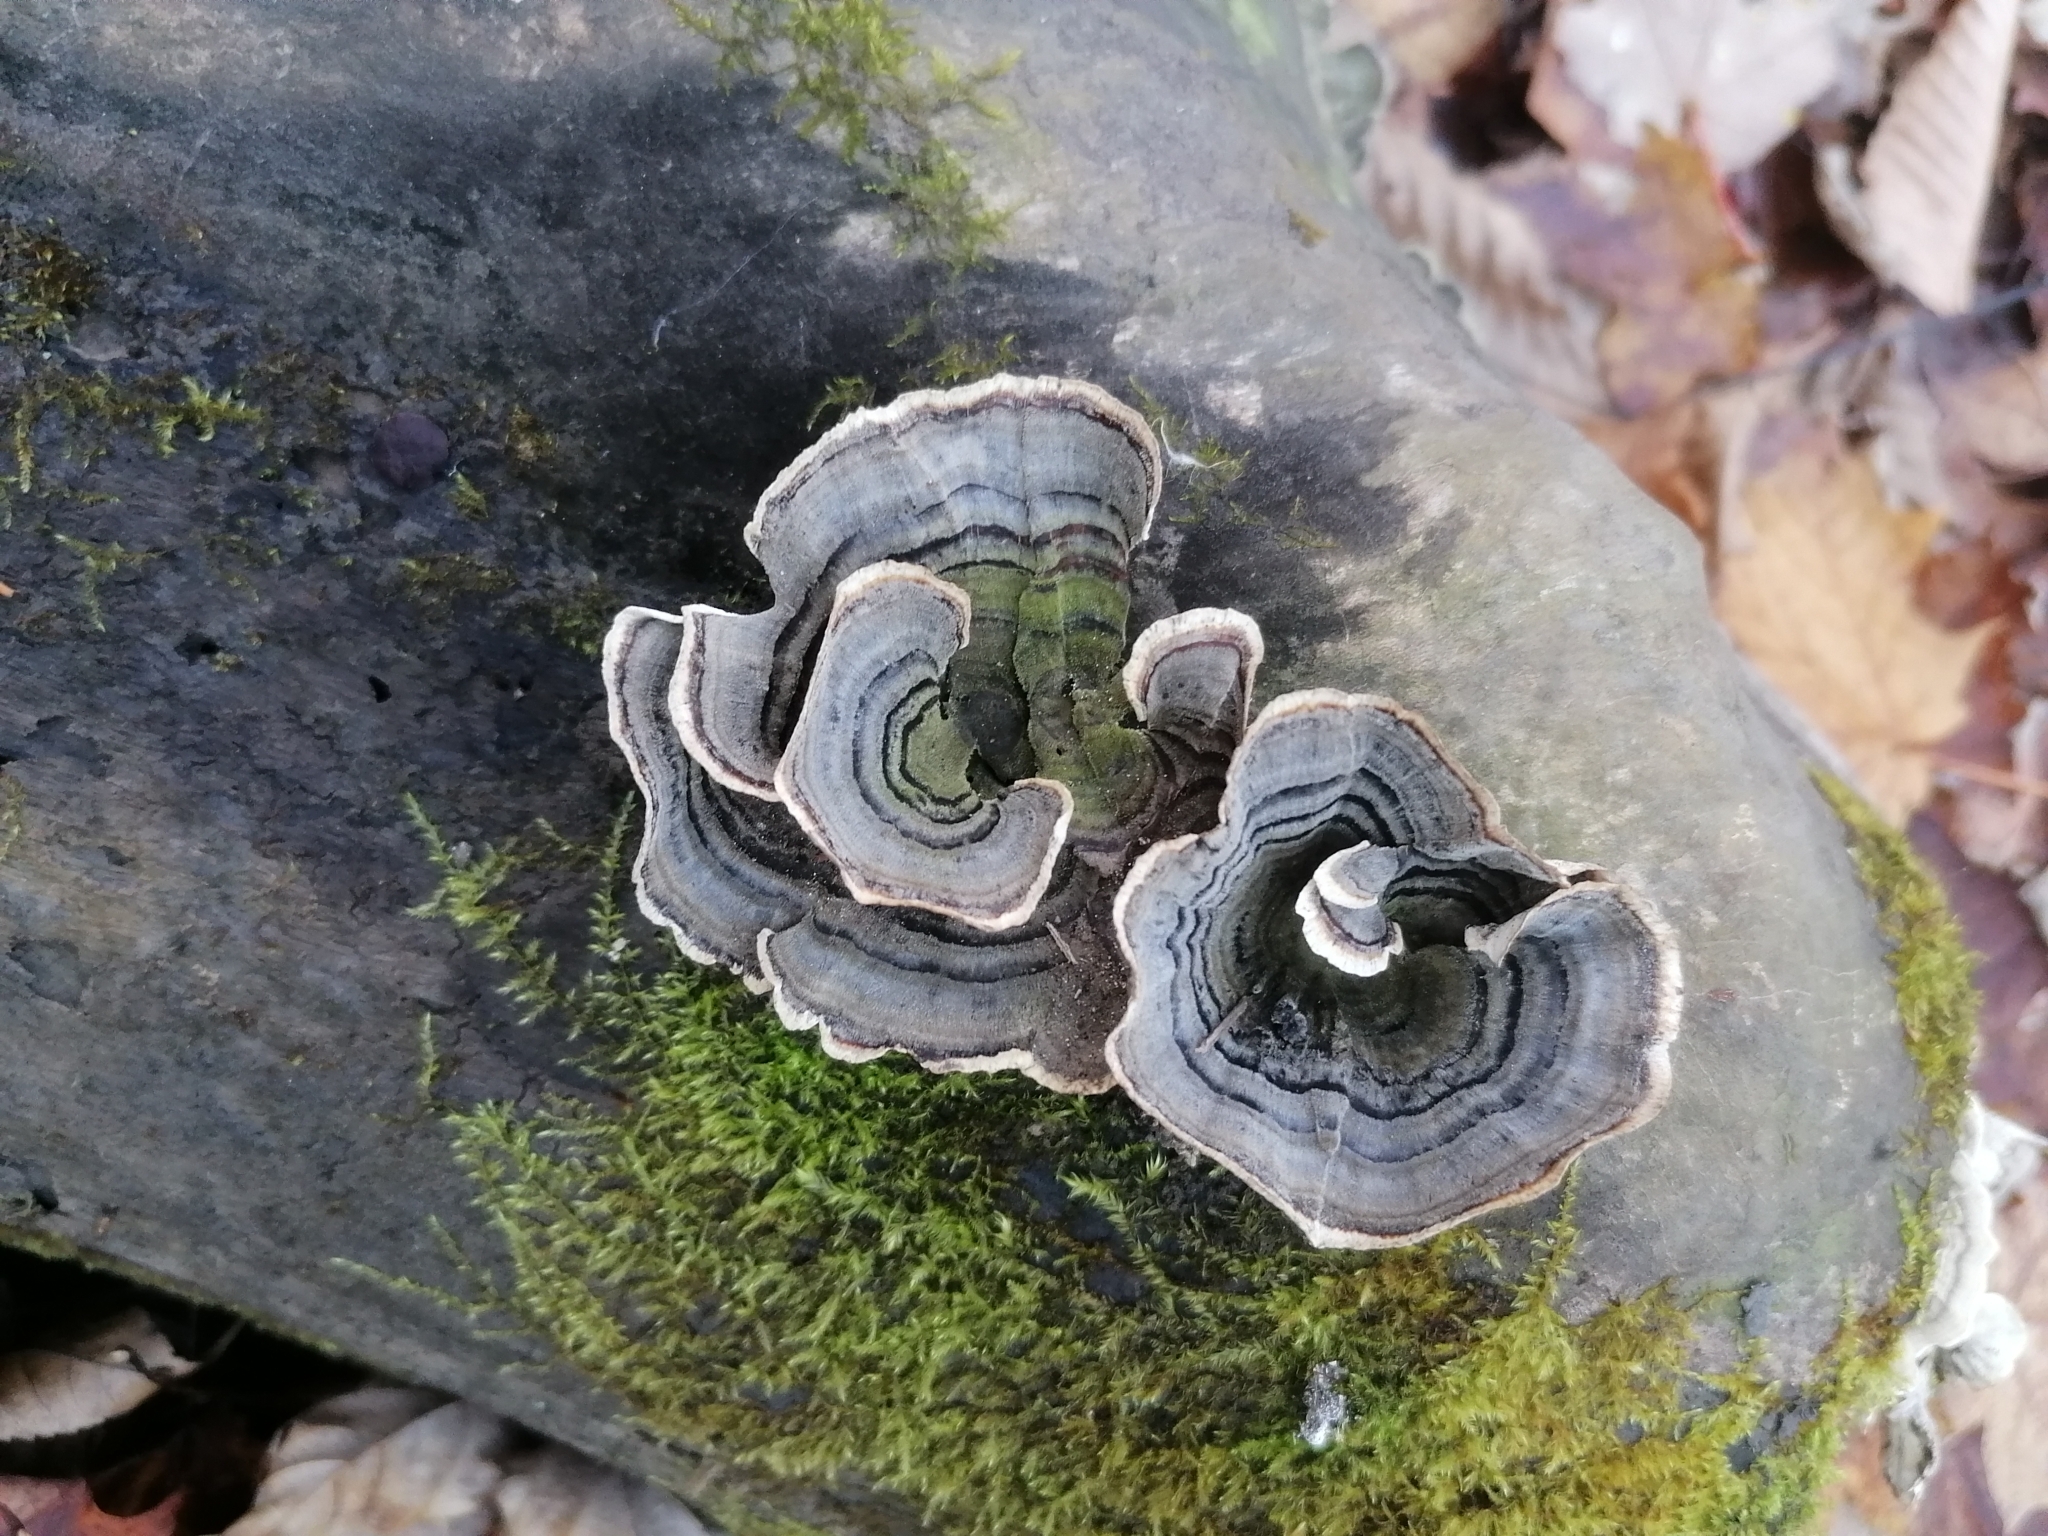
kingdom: Fungi
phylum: Basidiomycota
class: Agaricomycetes
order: Polyporales
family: Polyporaceae
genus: Trametes
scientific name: Trametes versicolor
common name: Turkeytail
